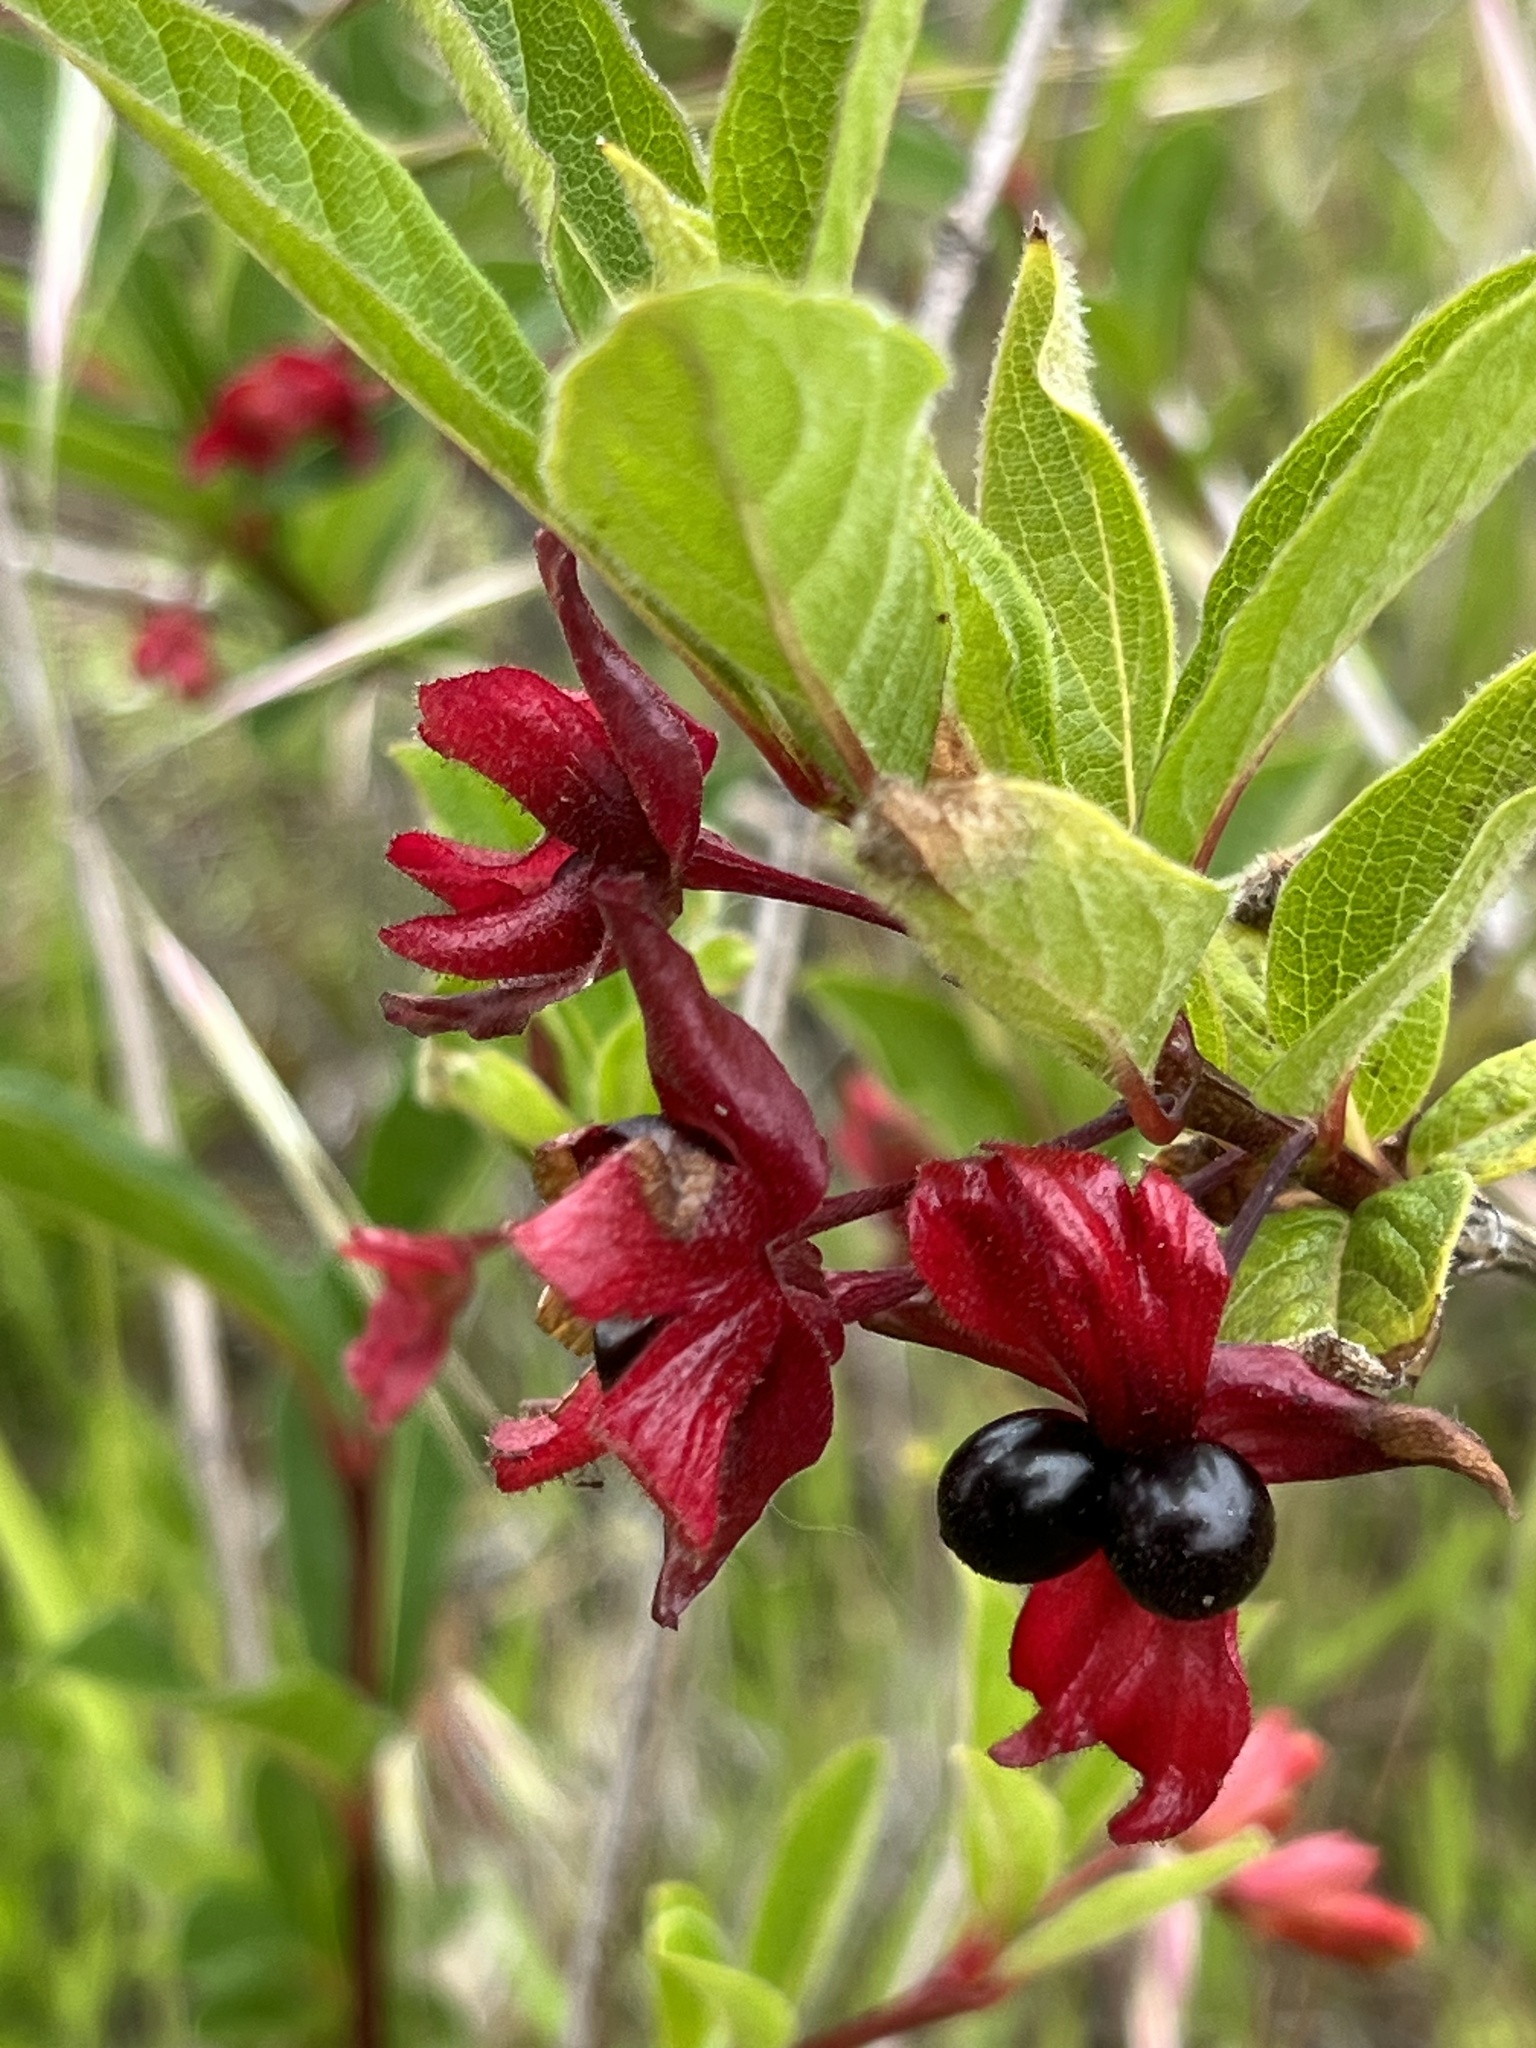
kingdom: Plantae
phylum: Tracheophyta
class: Magnoliopsida
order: Dipsacales
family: Caprifoliaceae
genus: Lonicera
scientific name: Lonicera involucrata
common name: Californian honeysuckle
